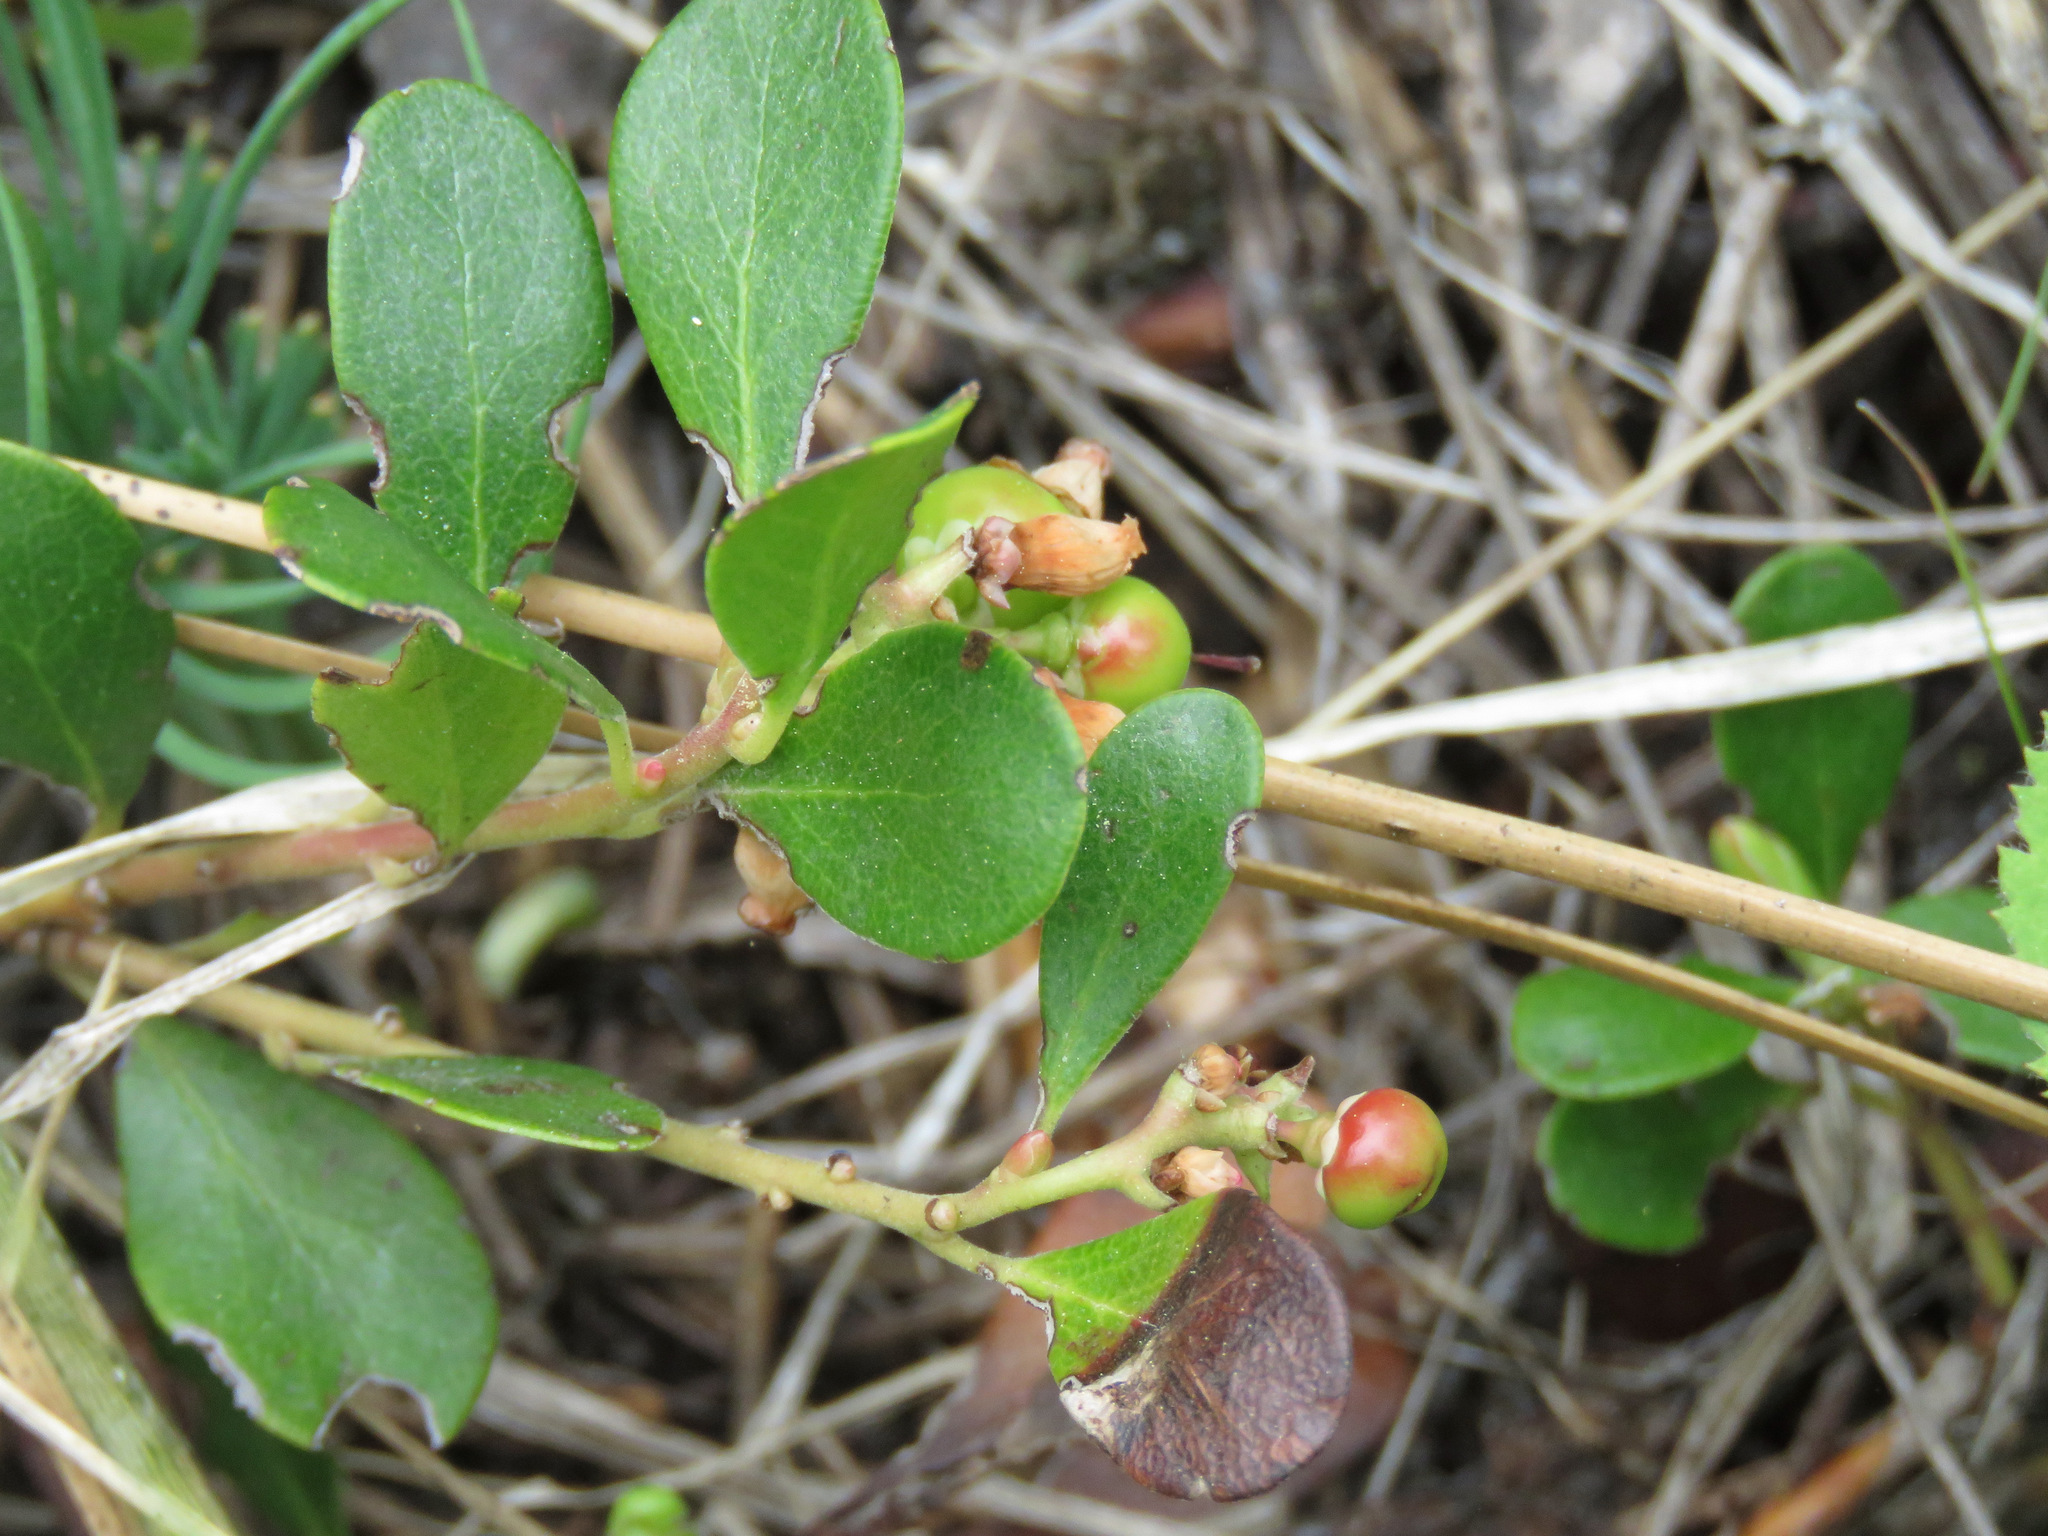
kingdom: Plantae
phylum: Tracheophyta
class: Magnoliopsida
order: Ericales
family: Ericaceae
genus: Arctostaphylos
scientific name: Arctostaphylos uva-ursi
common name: Bearberry
